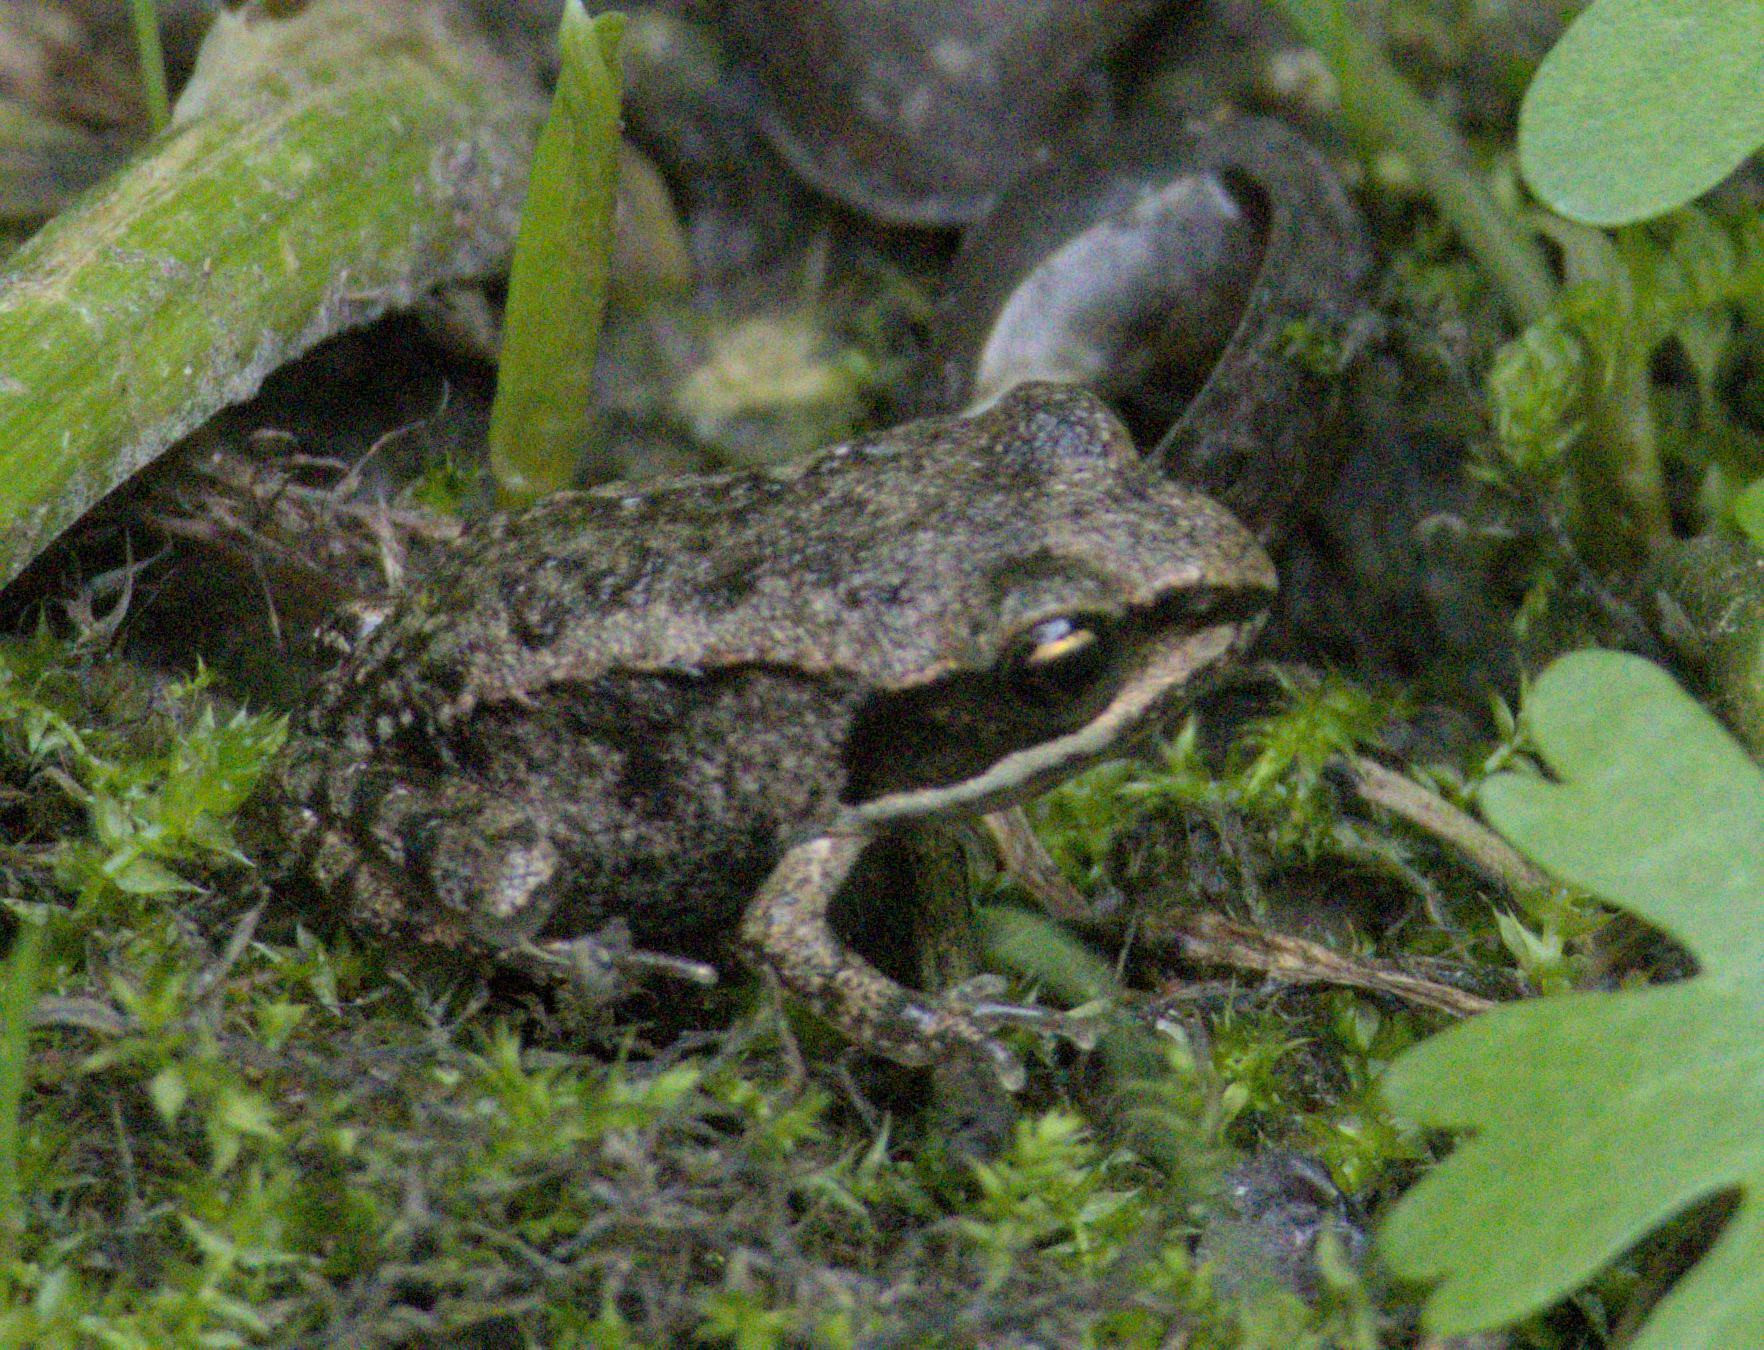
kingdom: Animalia
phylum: Chordata
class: Amphibia
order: Anura
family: Ranidae
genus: Lithobates
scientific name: Lithobates sylvaticus
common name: Wood frog
